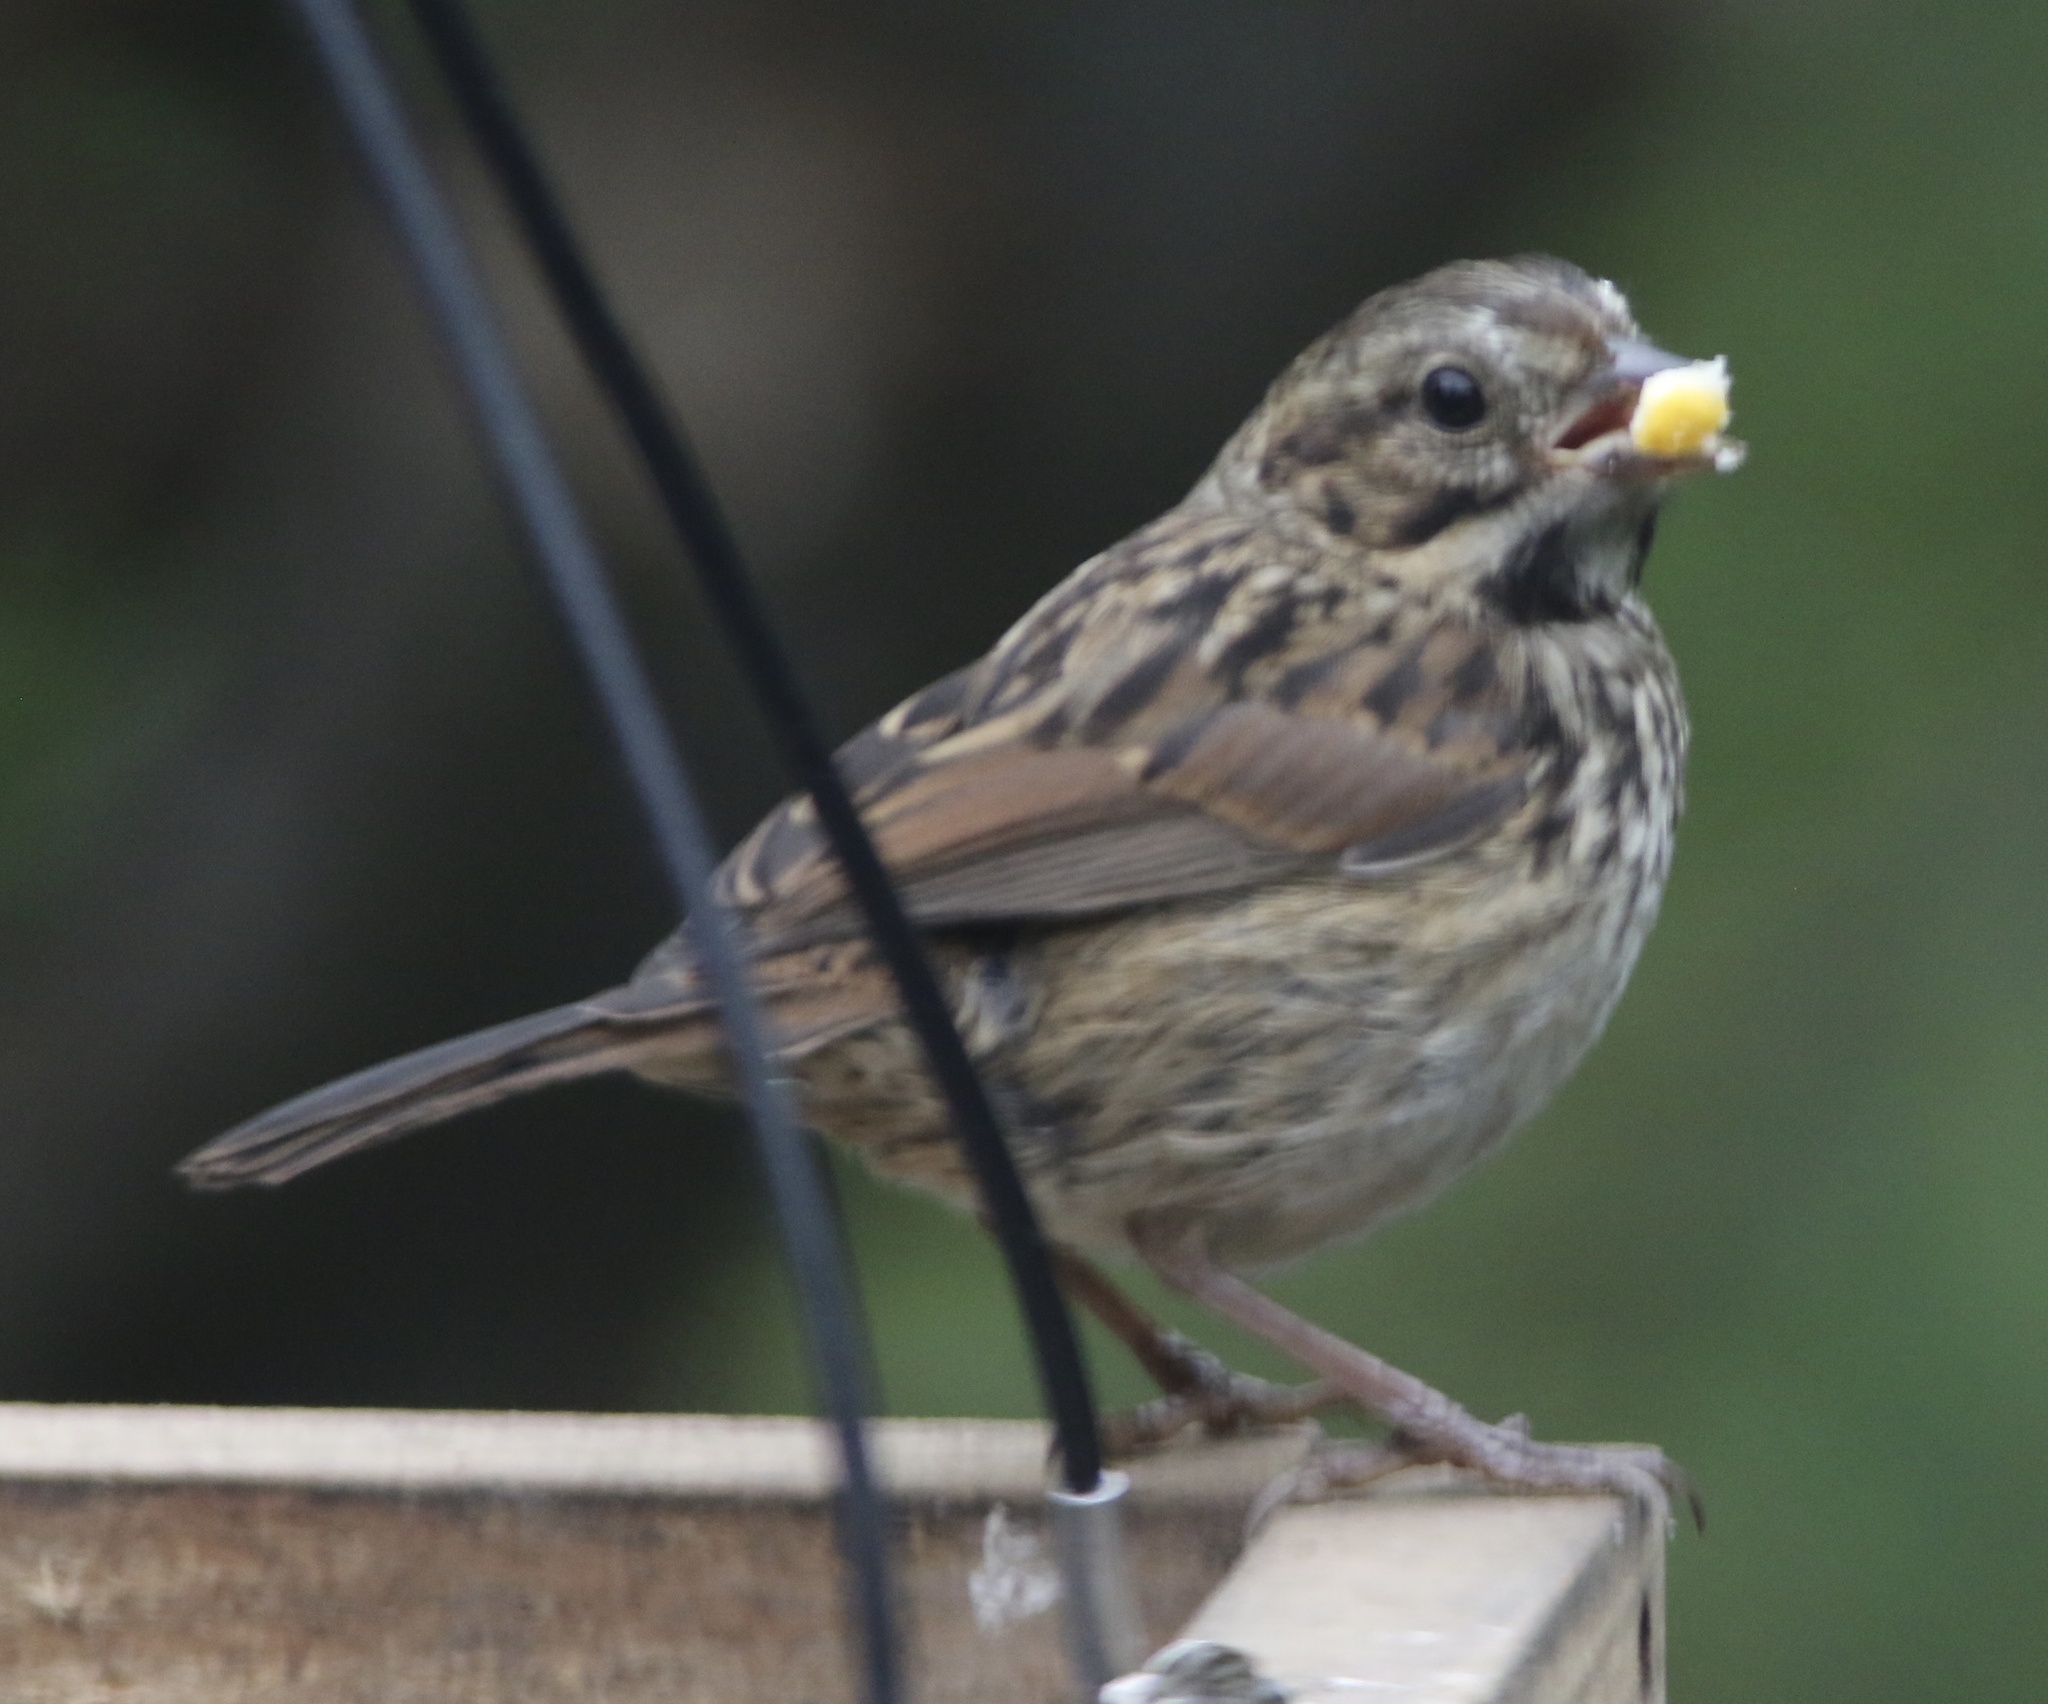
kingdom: Animalia
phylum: Chordata
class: Aves
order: Passeriformes
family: Passerellidae
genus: Melospiza
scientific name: Melospiza melodia
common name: Song sparrow
